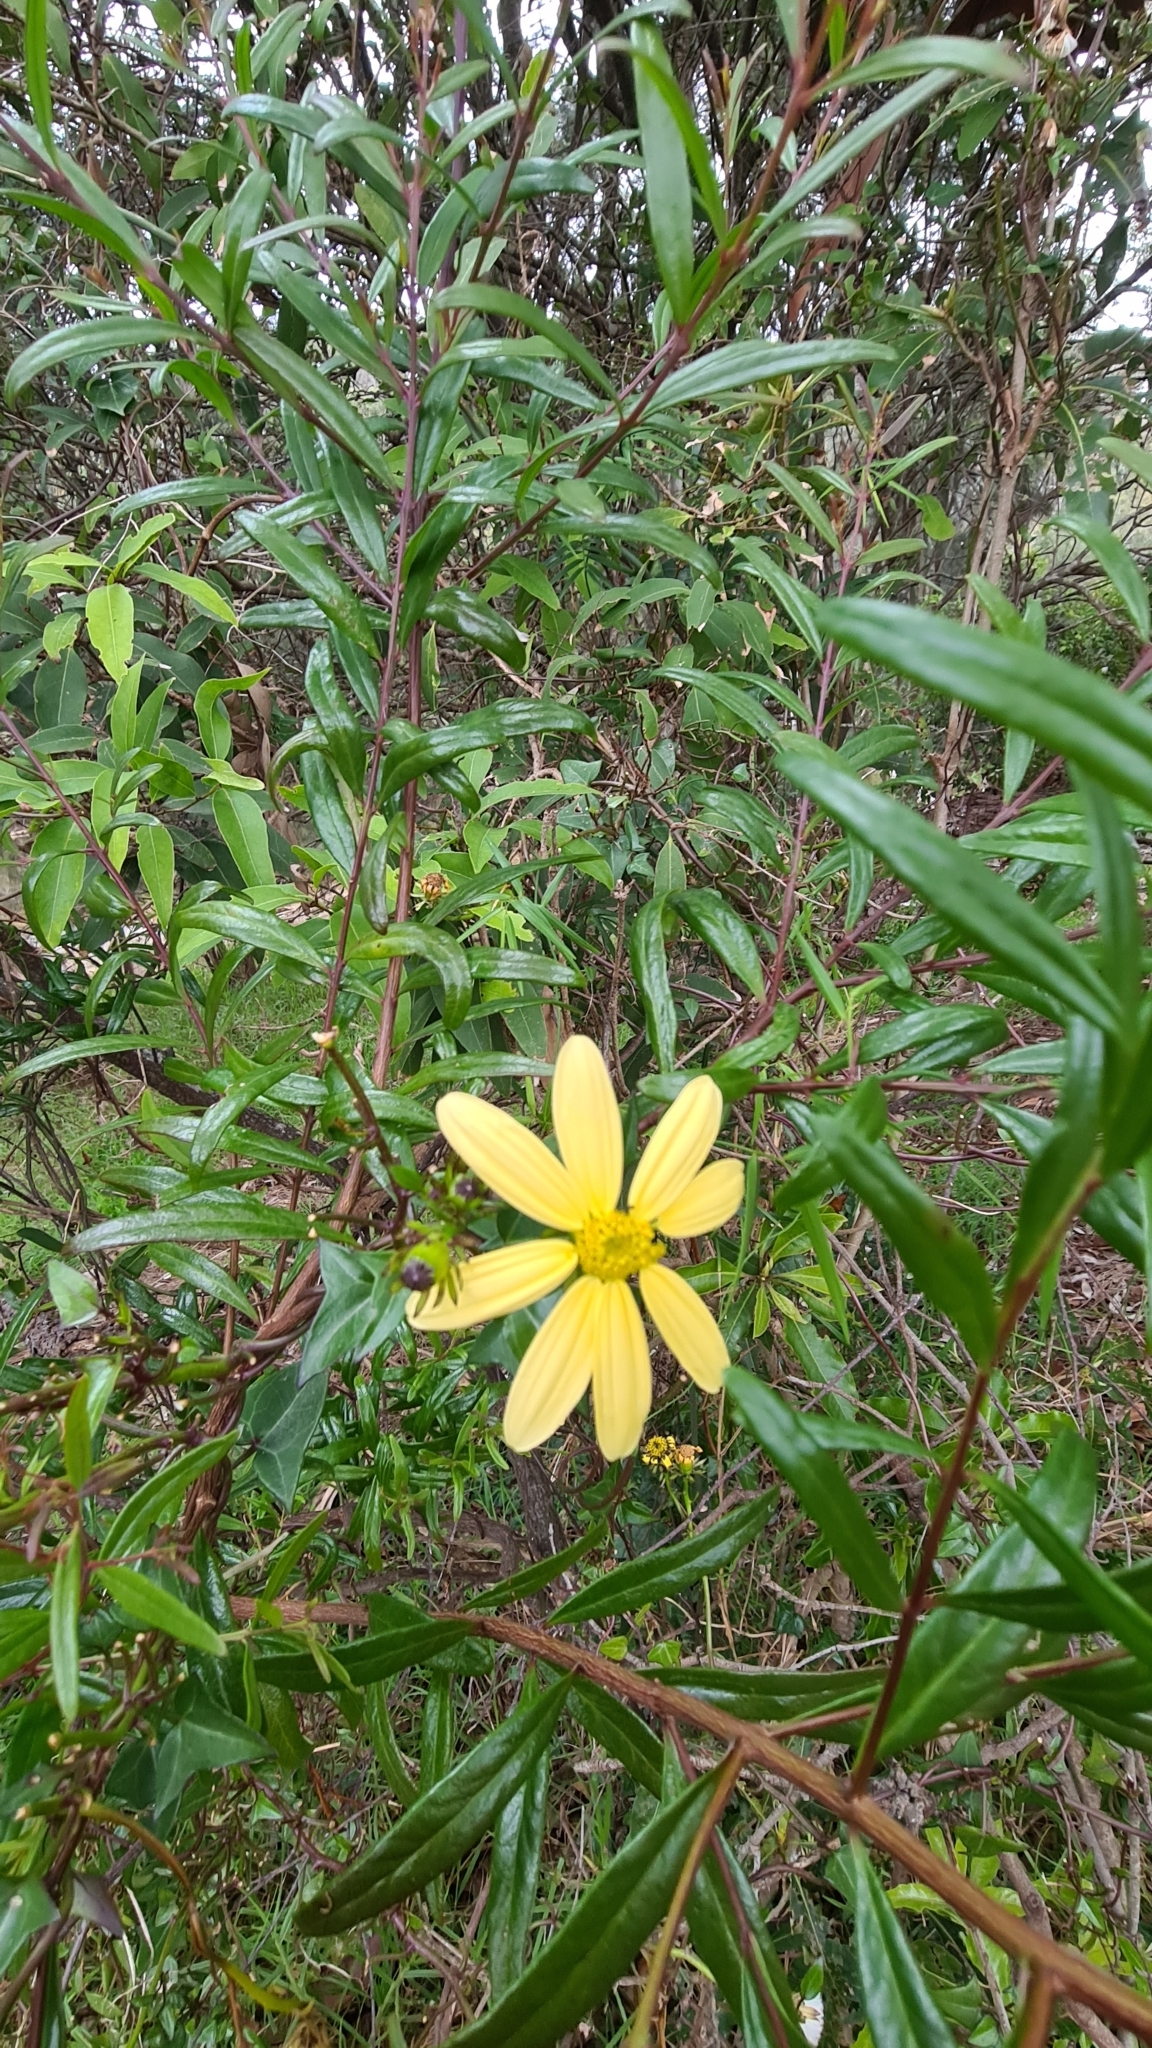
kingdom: Plantae
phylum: Tracheophyta
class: Magnoliopsida
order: Asterales
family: Asteraceae
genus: Senecio
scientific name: Senecio macroglossus
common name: Natal-ivy
